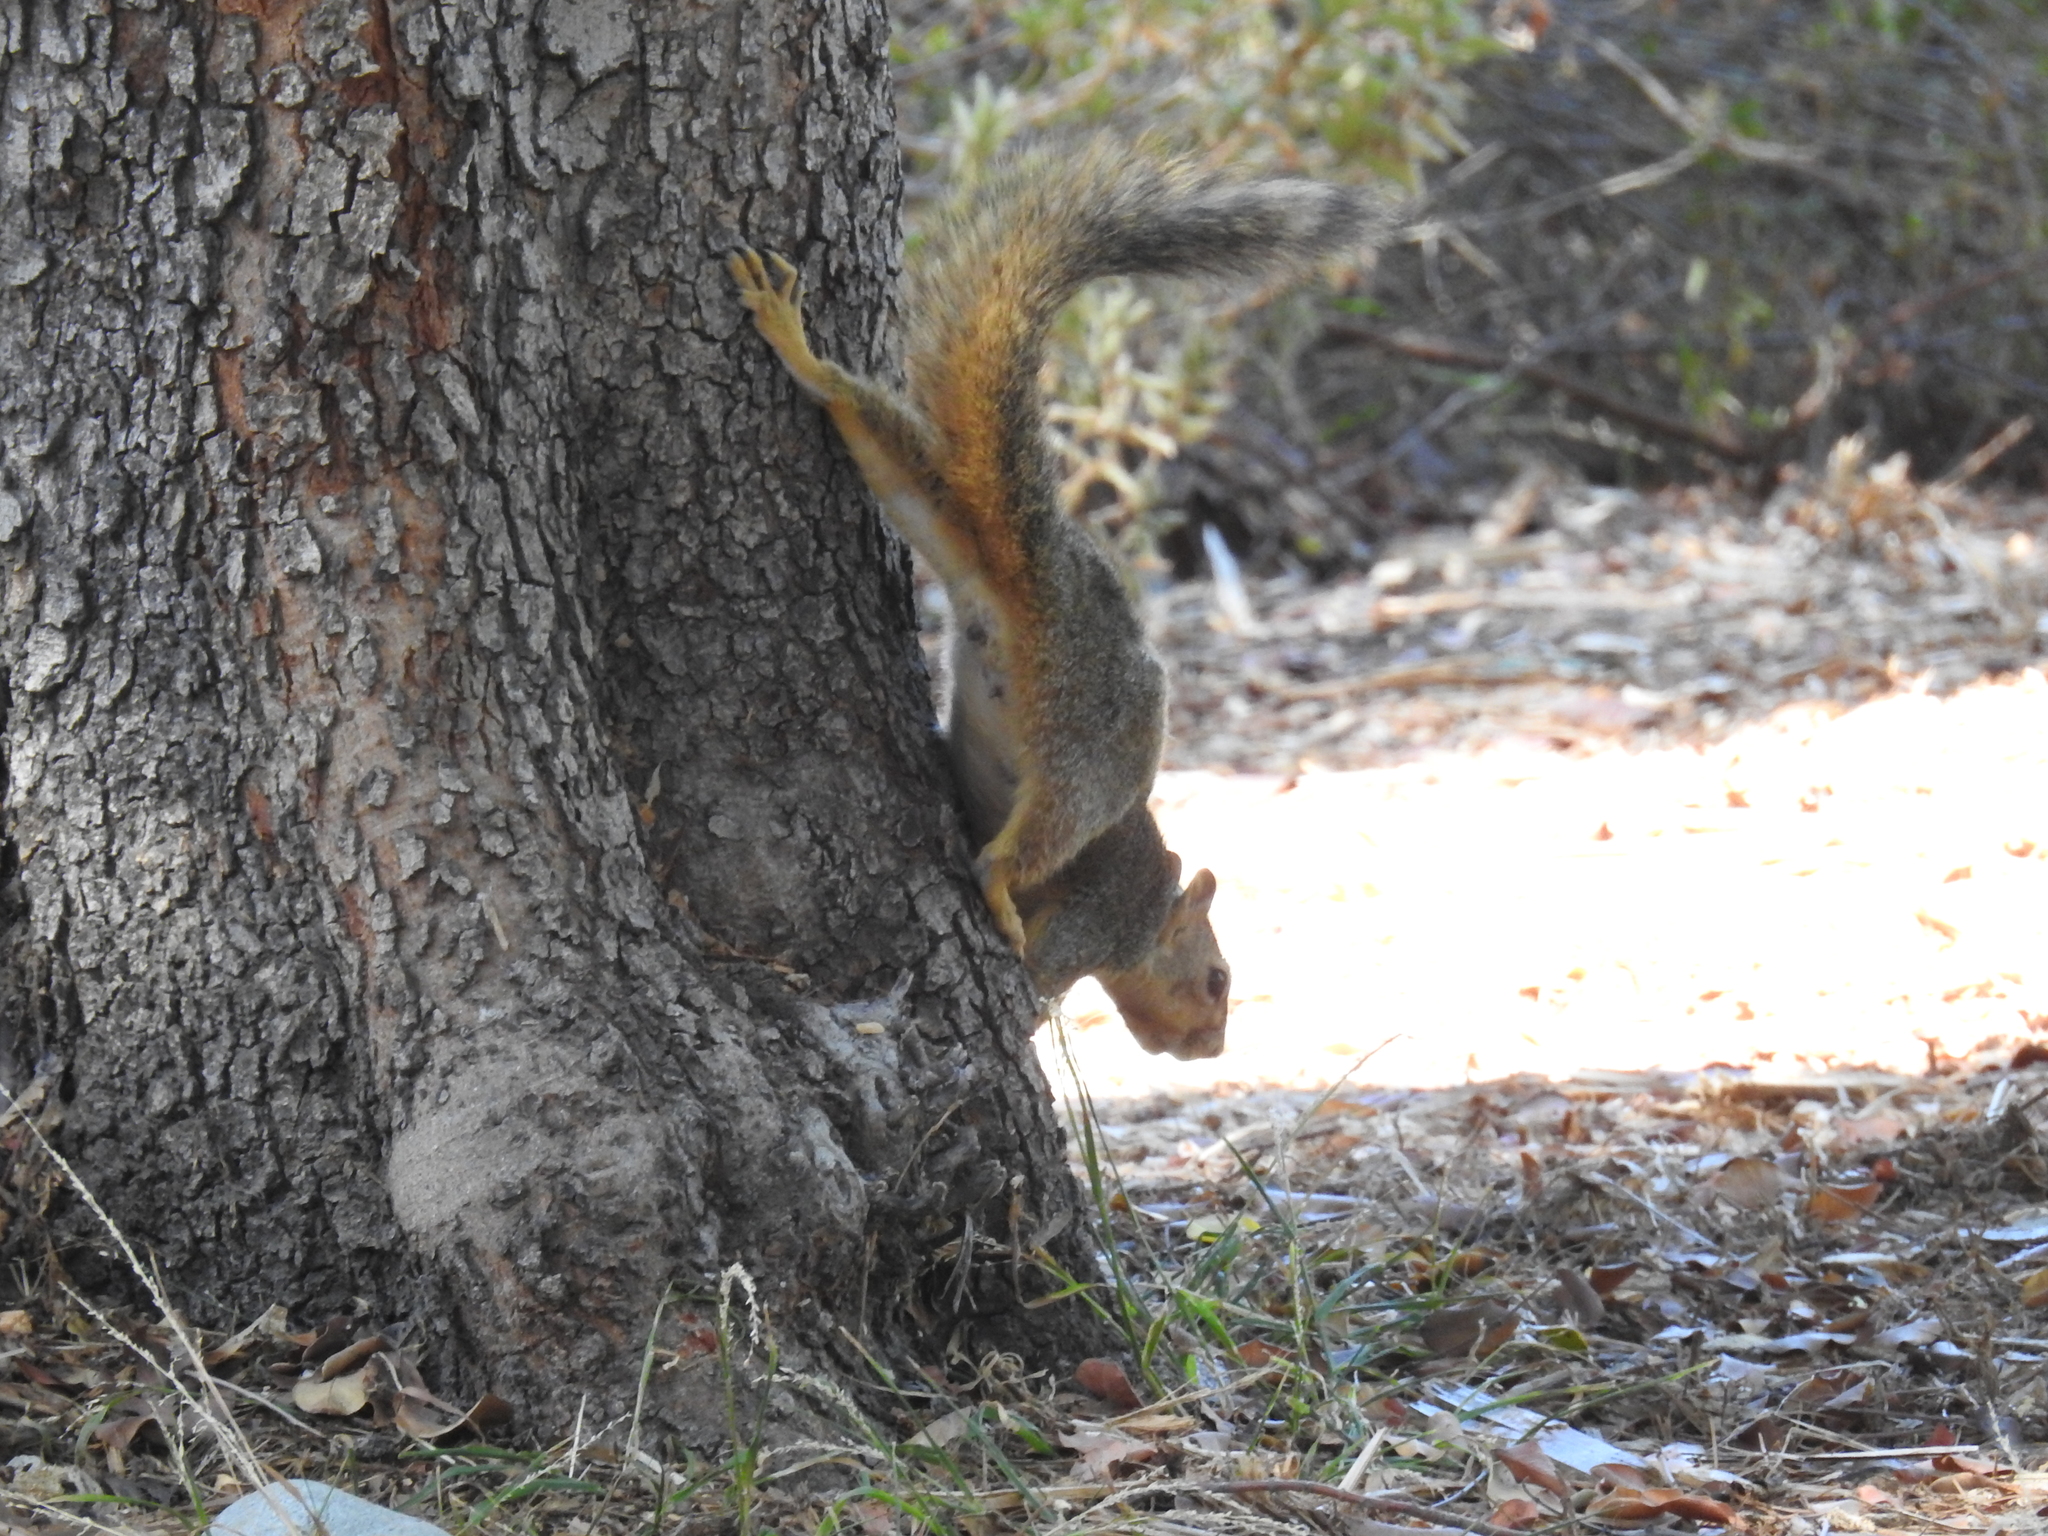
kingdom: Animalia
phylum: Chordata
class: Mammalia
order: Rodentia
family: Sciuridae
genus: Sciurus
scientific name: Sciurus niger
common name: Fox squirrel
